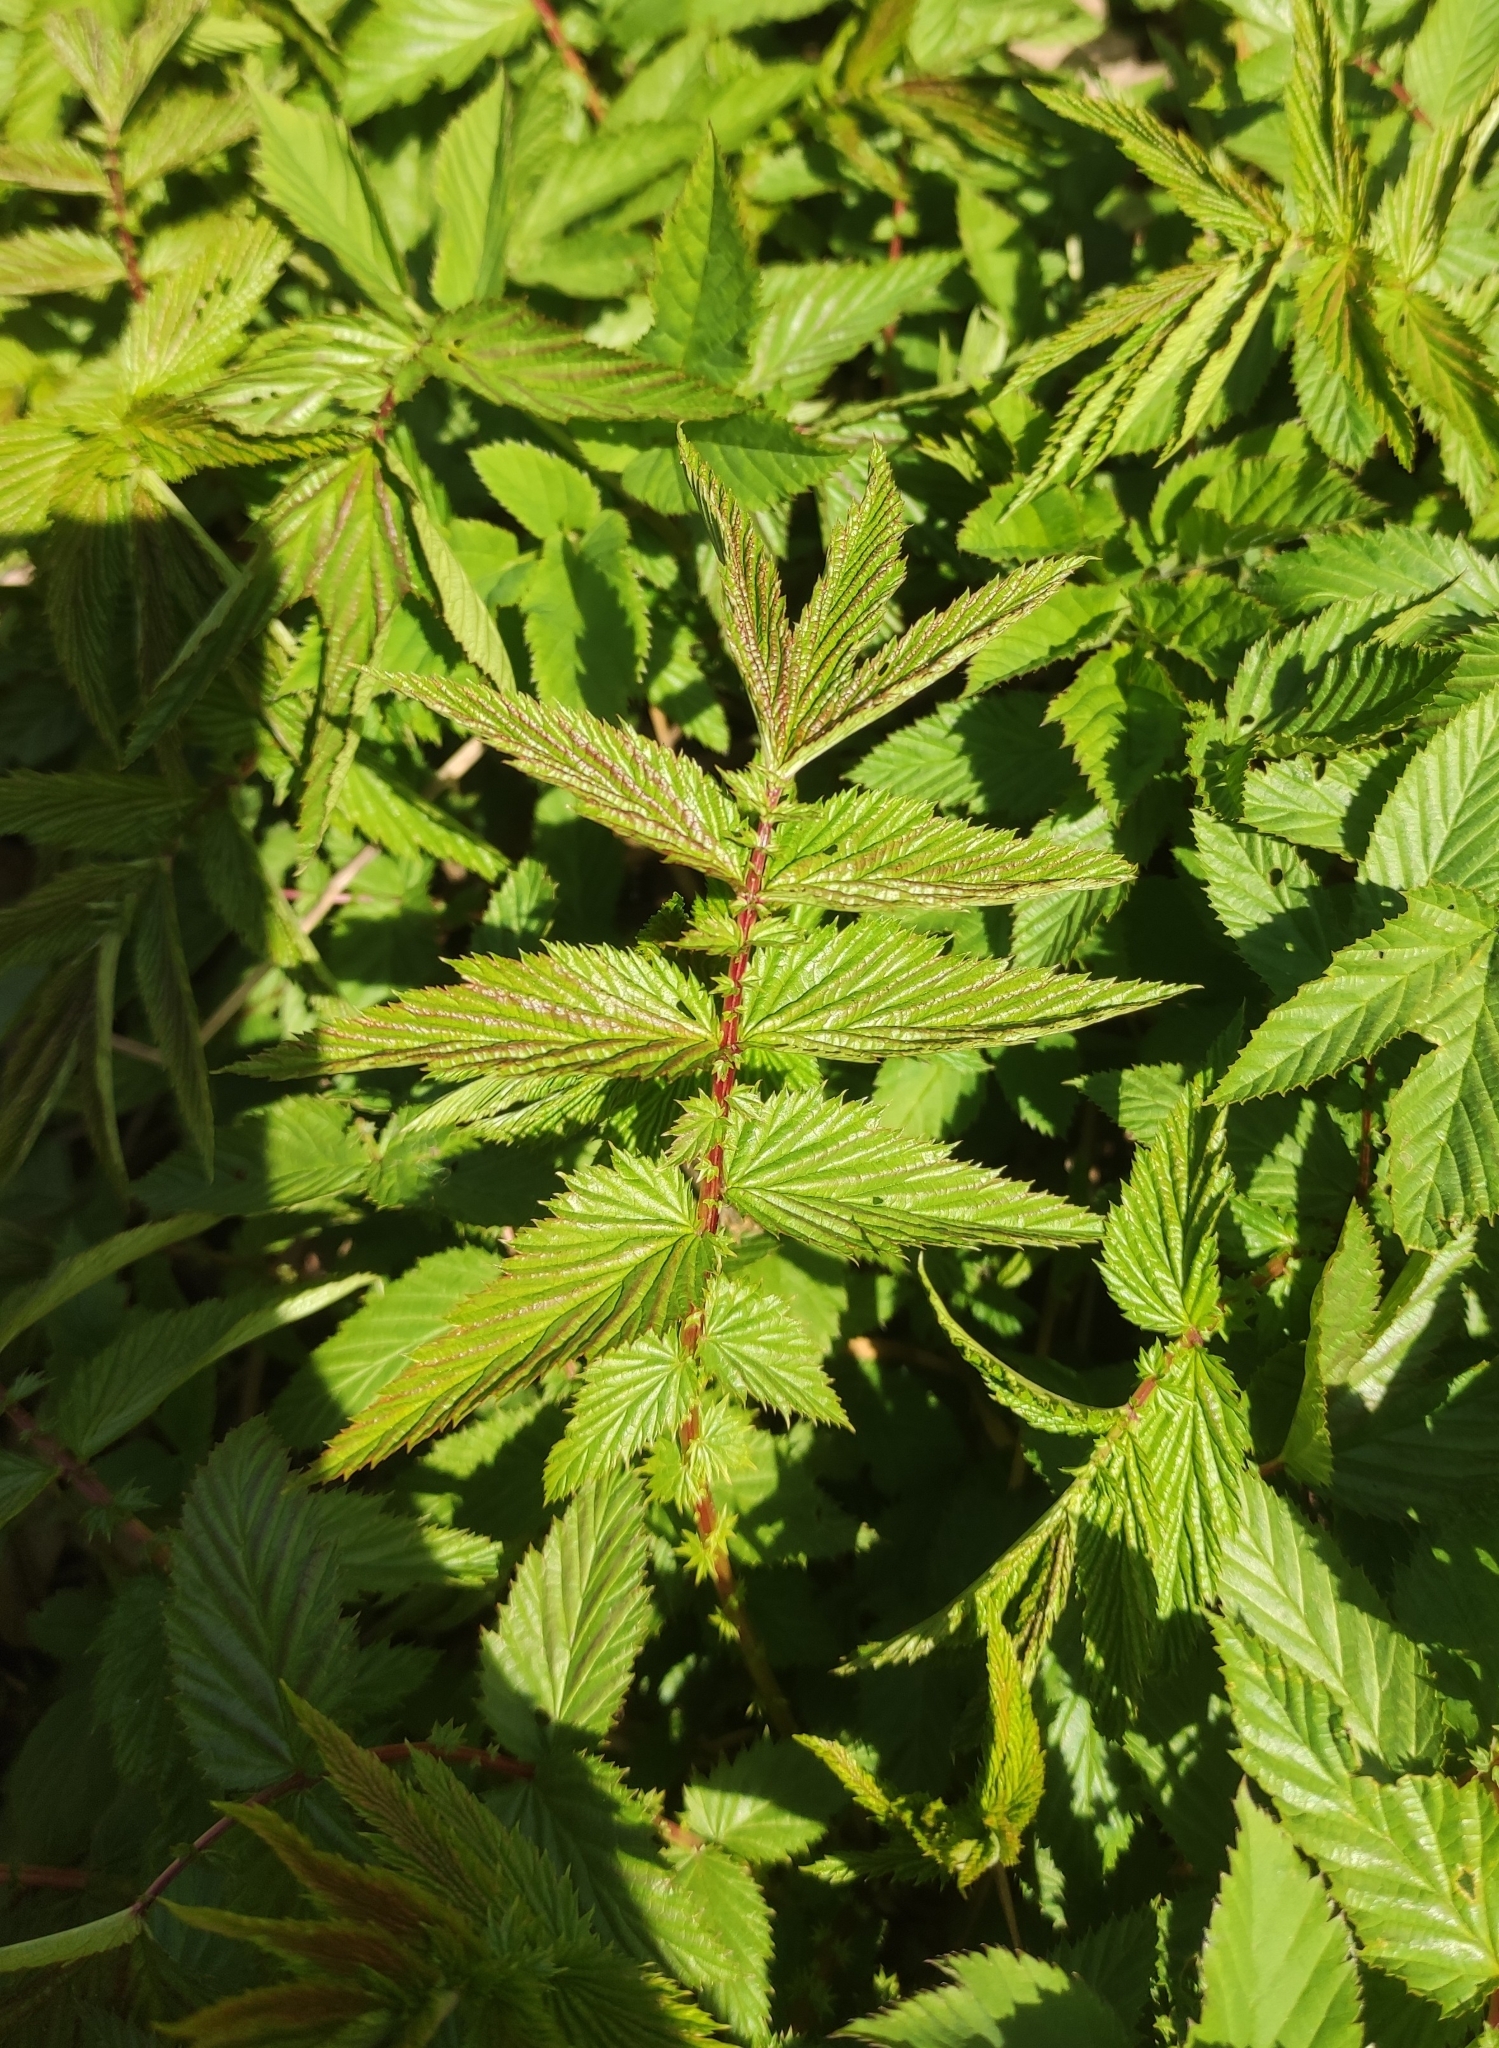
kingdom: Plantae
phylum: Tracheophyta
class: Magnoliopsida
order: Rosales
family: Rosaceae
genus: Filipendula
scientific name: Filipendula ulmaria
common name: Meadowsweet
